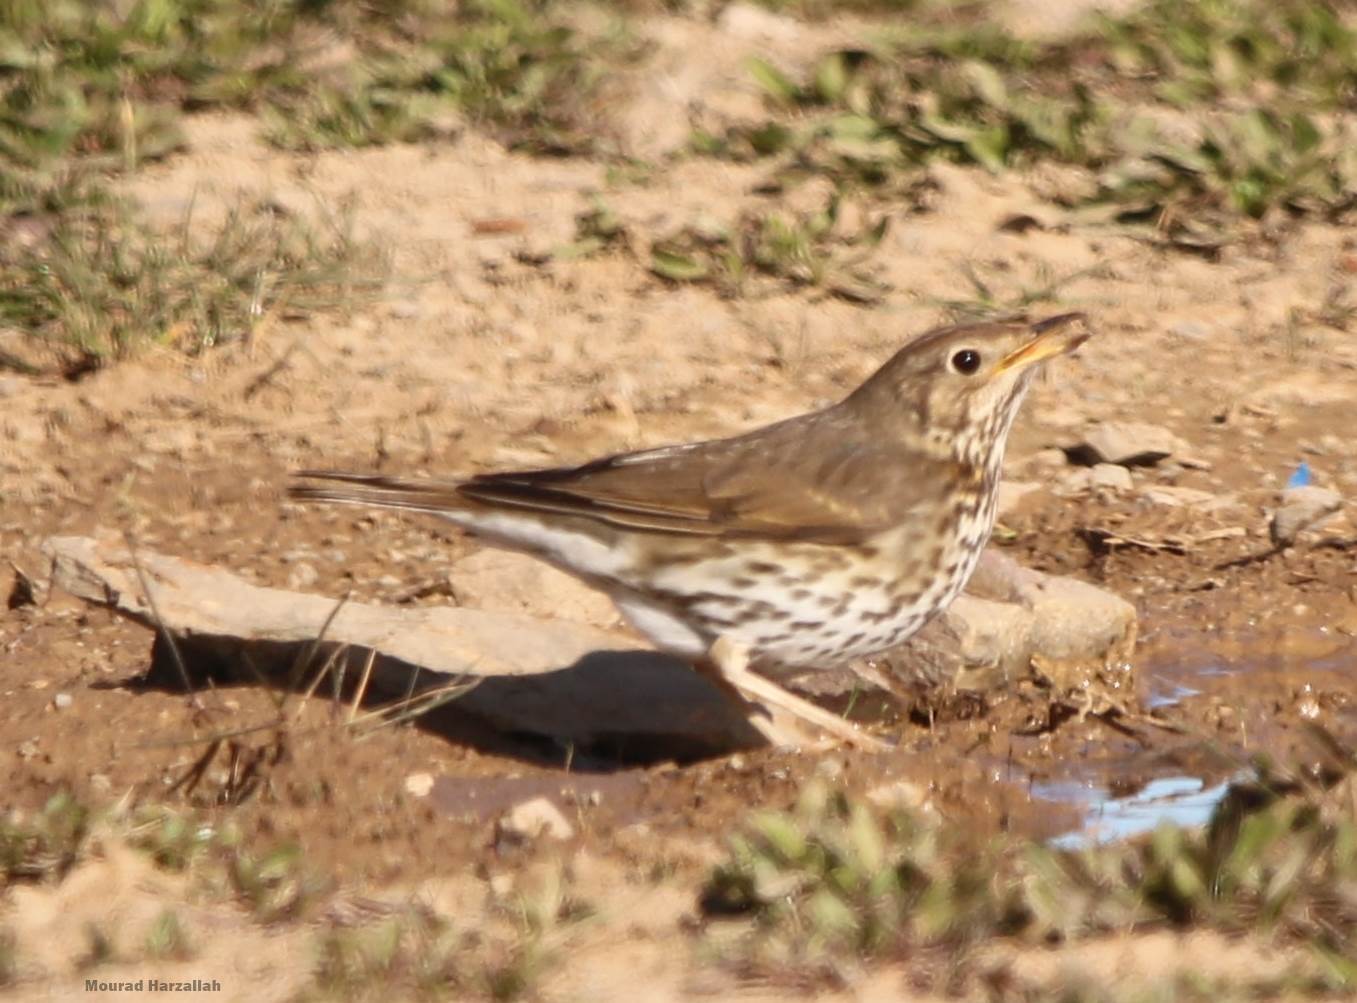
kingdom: Animalia
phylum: Chordata
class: Aves
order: Passeriformes
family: Turdidae
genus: Turdus
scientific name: Turdus philomelos
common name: Song thrush
